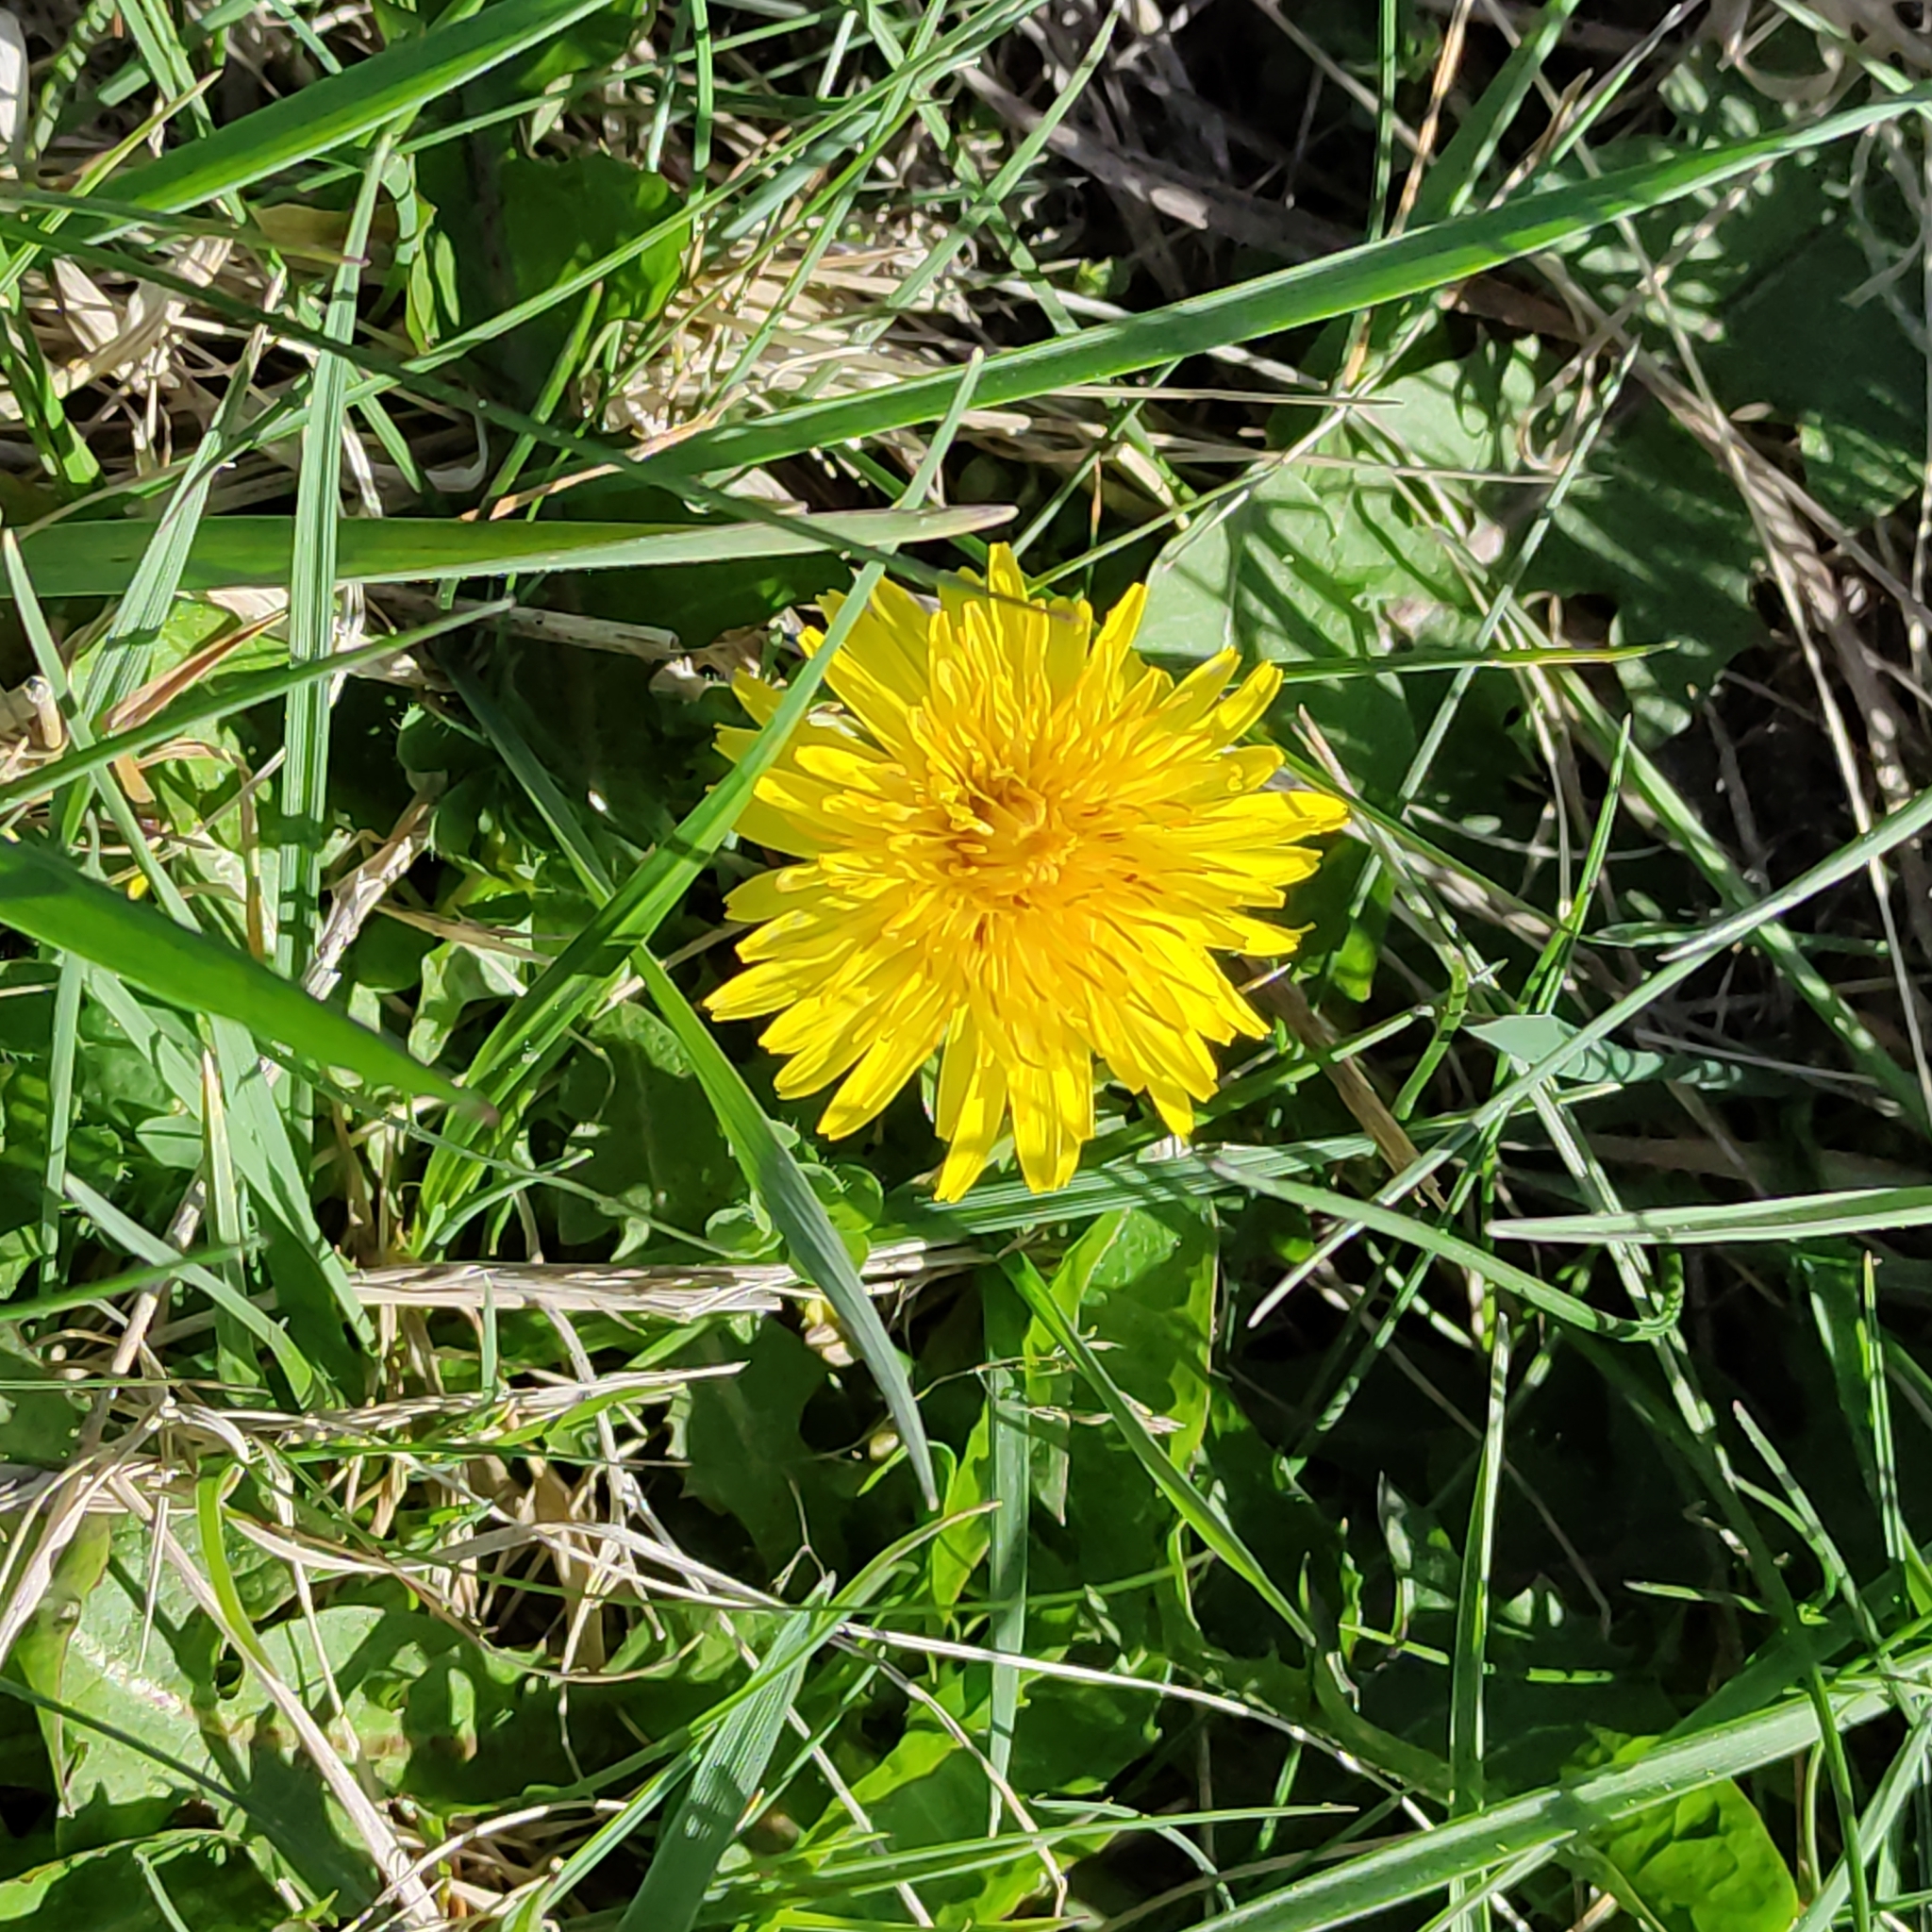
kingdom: Plantae
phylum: Tracheophyta
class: Magnoliopsida
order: Asterales
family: Asteraceae
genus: Taraxacum
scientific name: Taraxacum officinale
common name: Common dandelion
